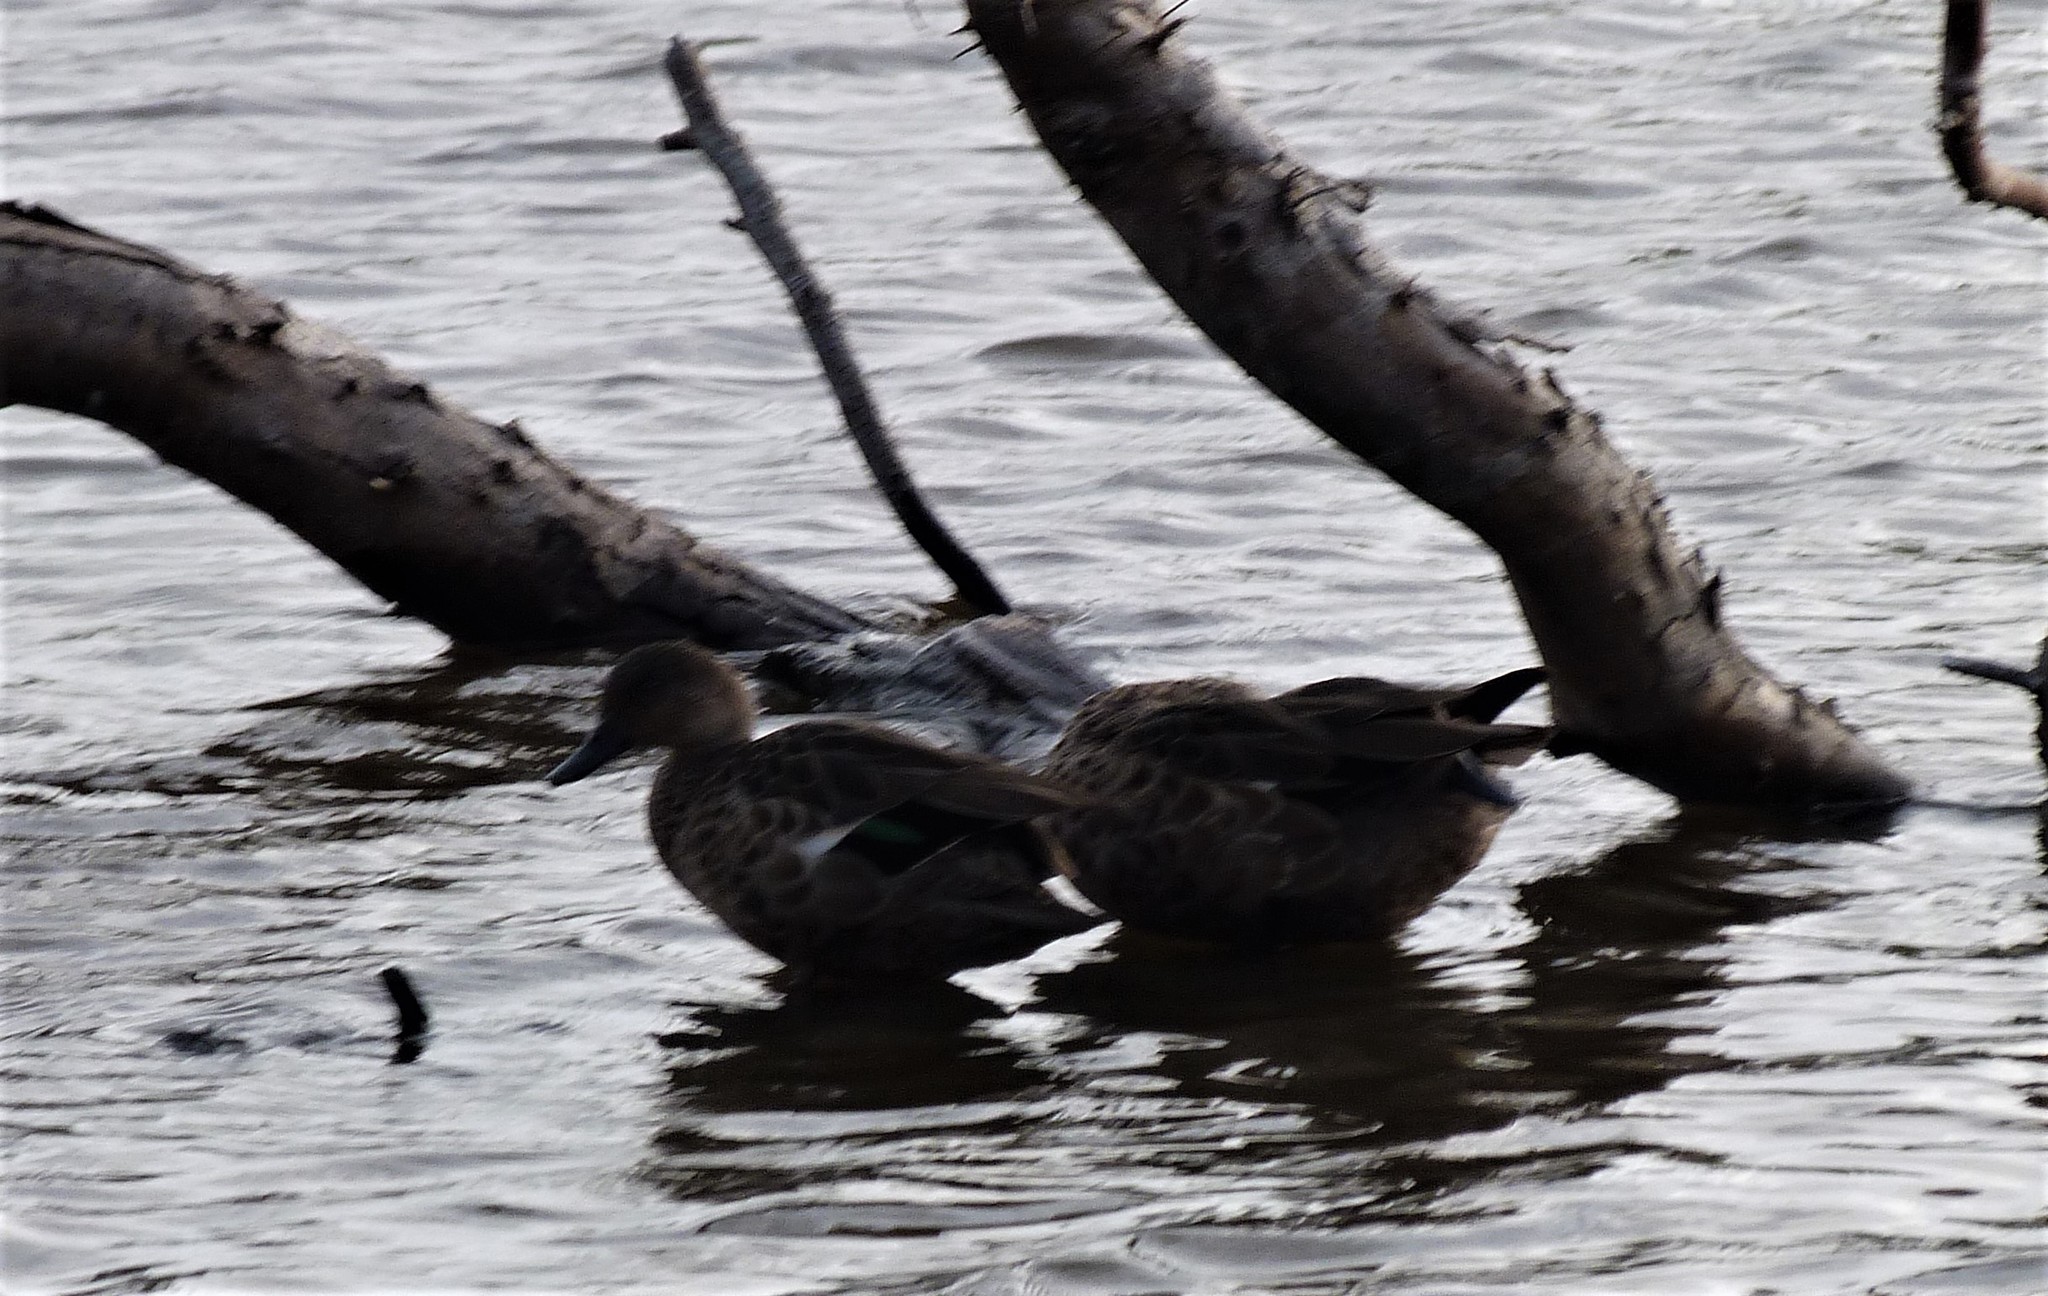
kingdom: Animalia
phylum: Chordata
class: Aves
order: Anseriformes
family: Anatidae
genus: Anas
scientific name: Anas gracilis
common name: Grey teal
